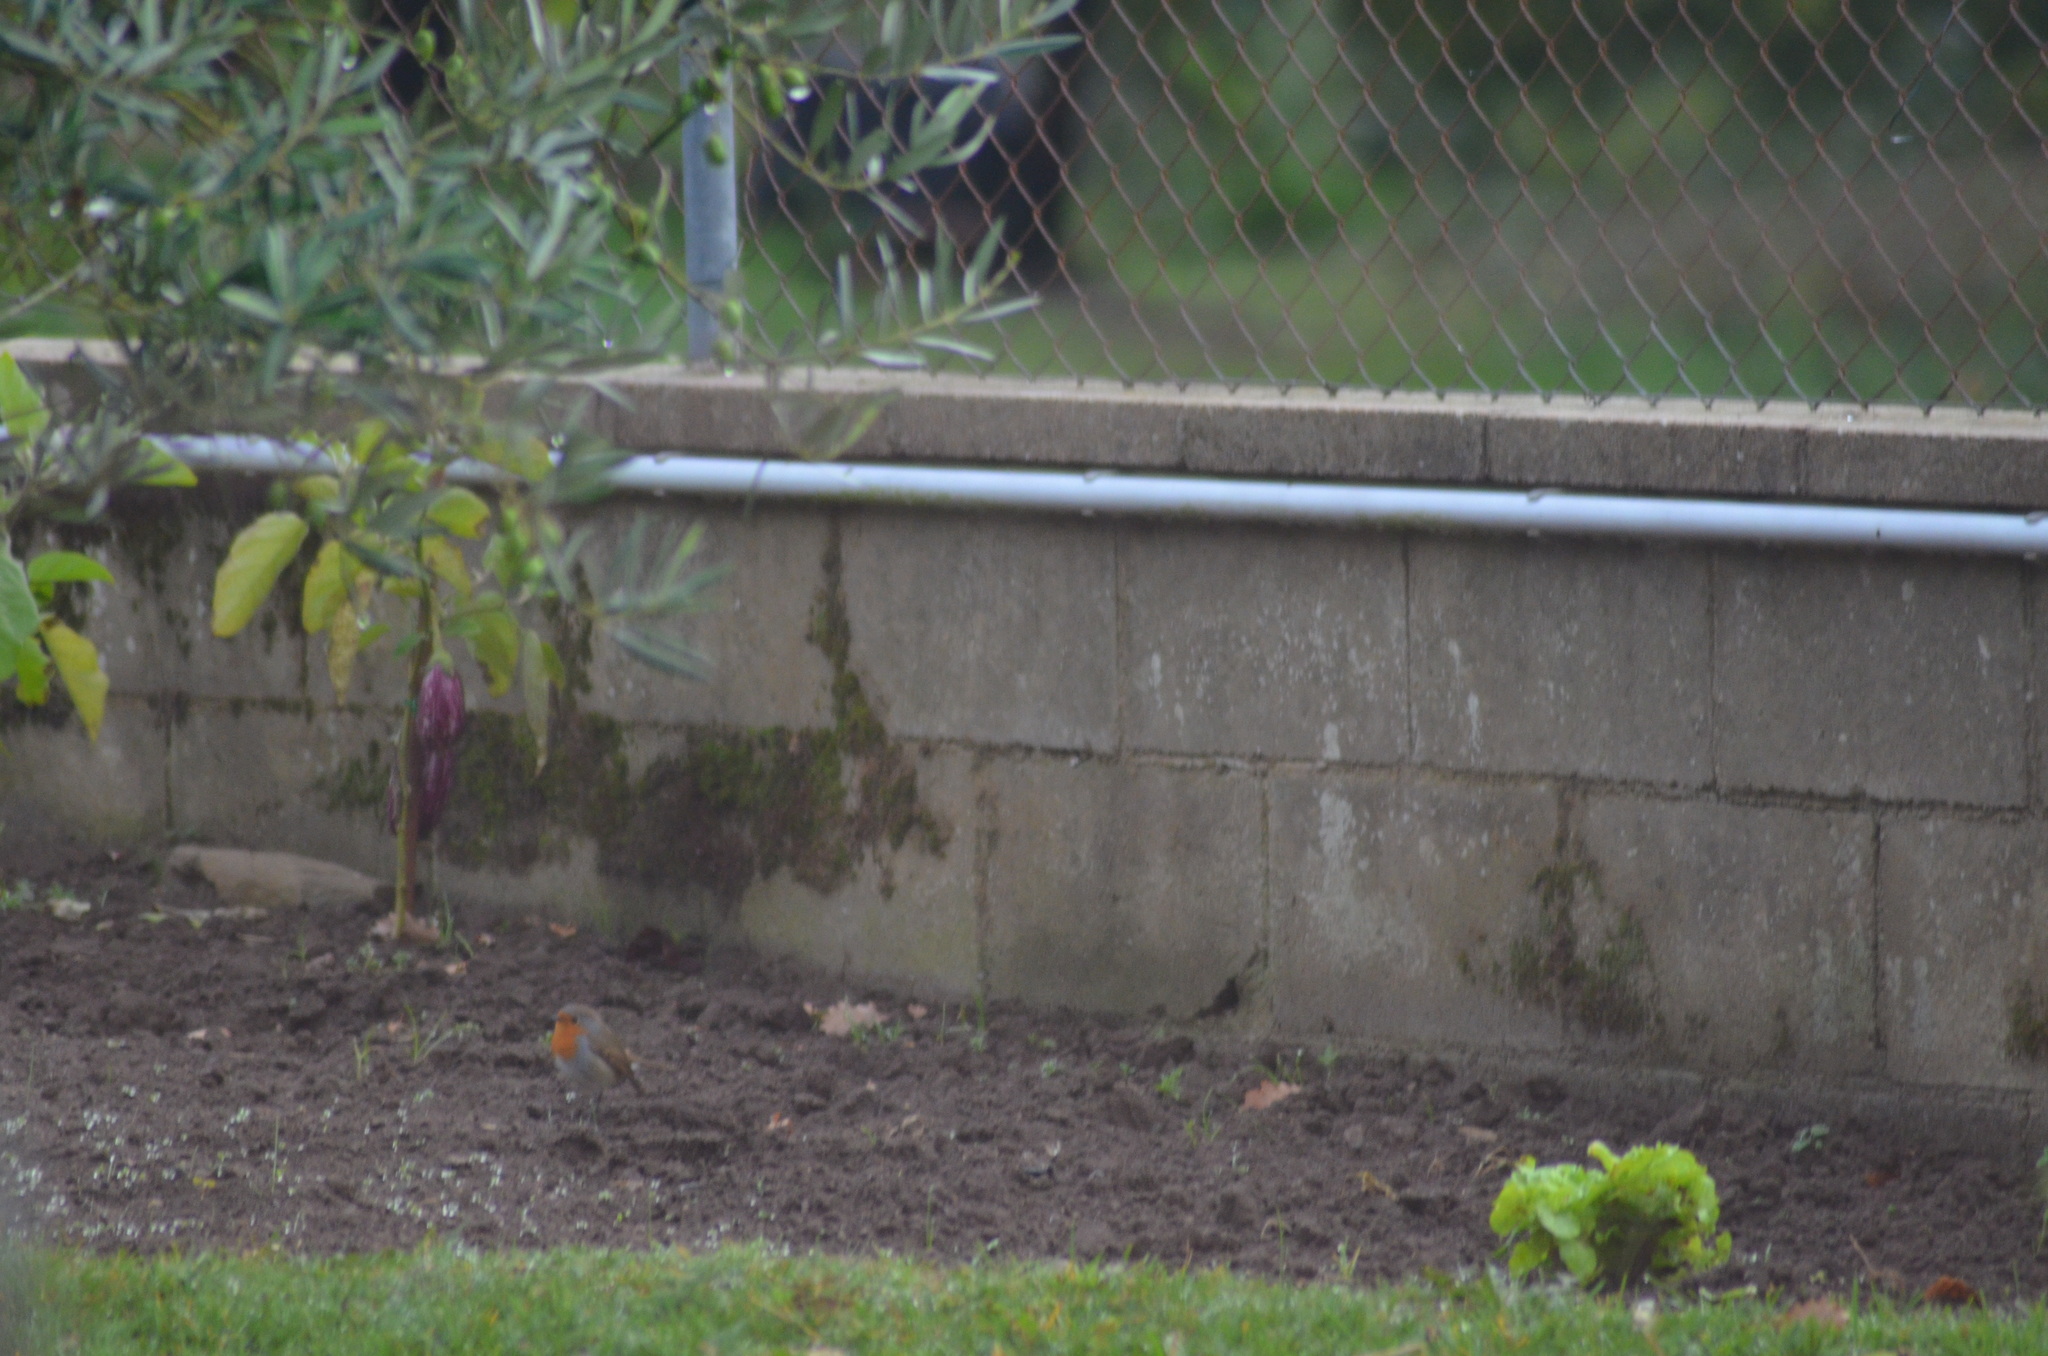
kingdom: Animalia
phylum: Chordata
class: Aves
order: Passeriformes
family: Muscicapidae
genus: Erithacus
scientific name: Erithacus rubecula
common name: European robin
